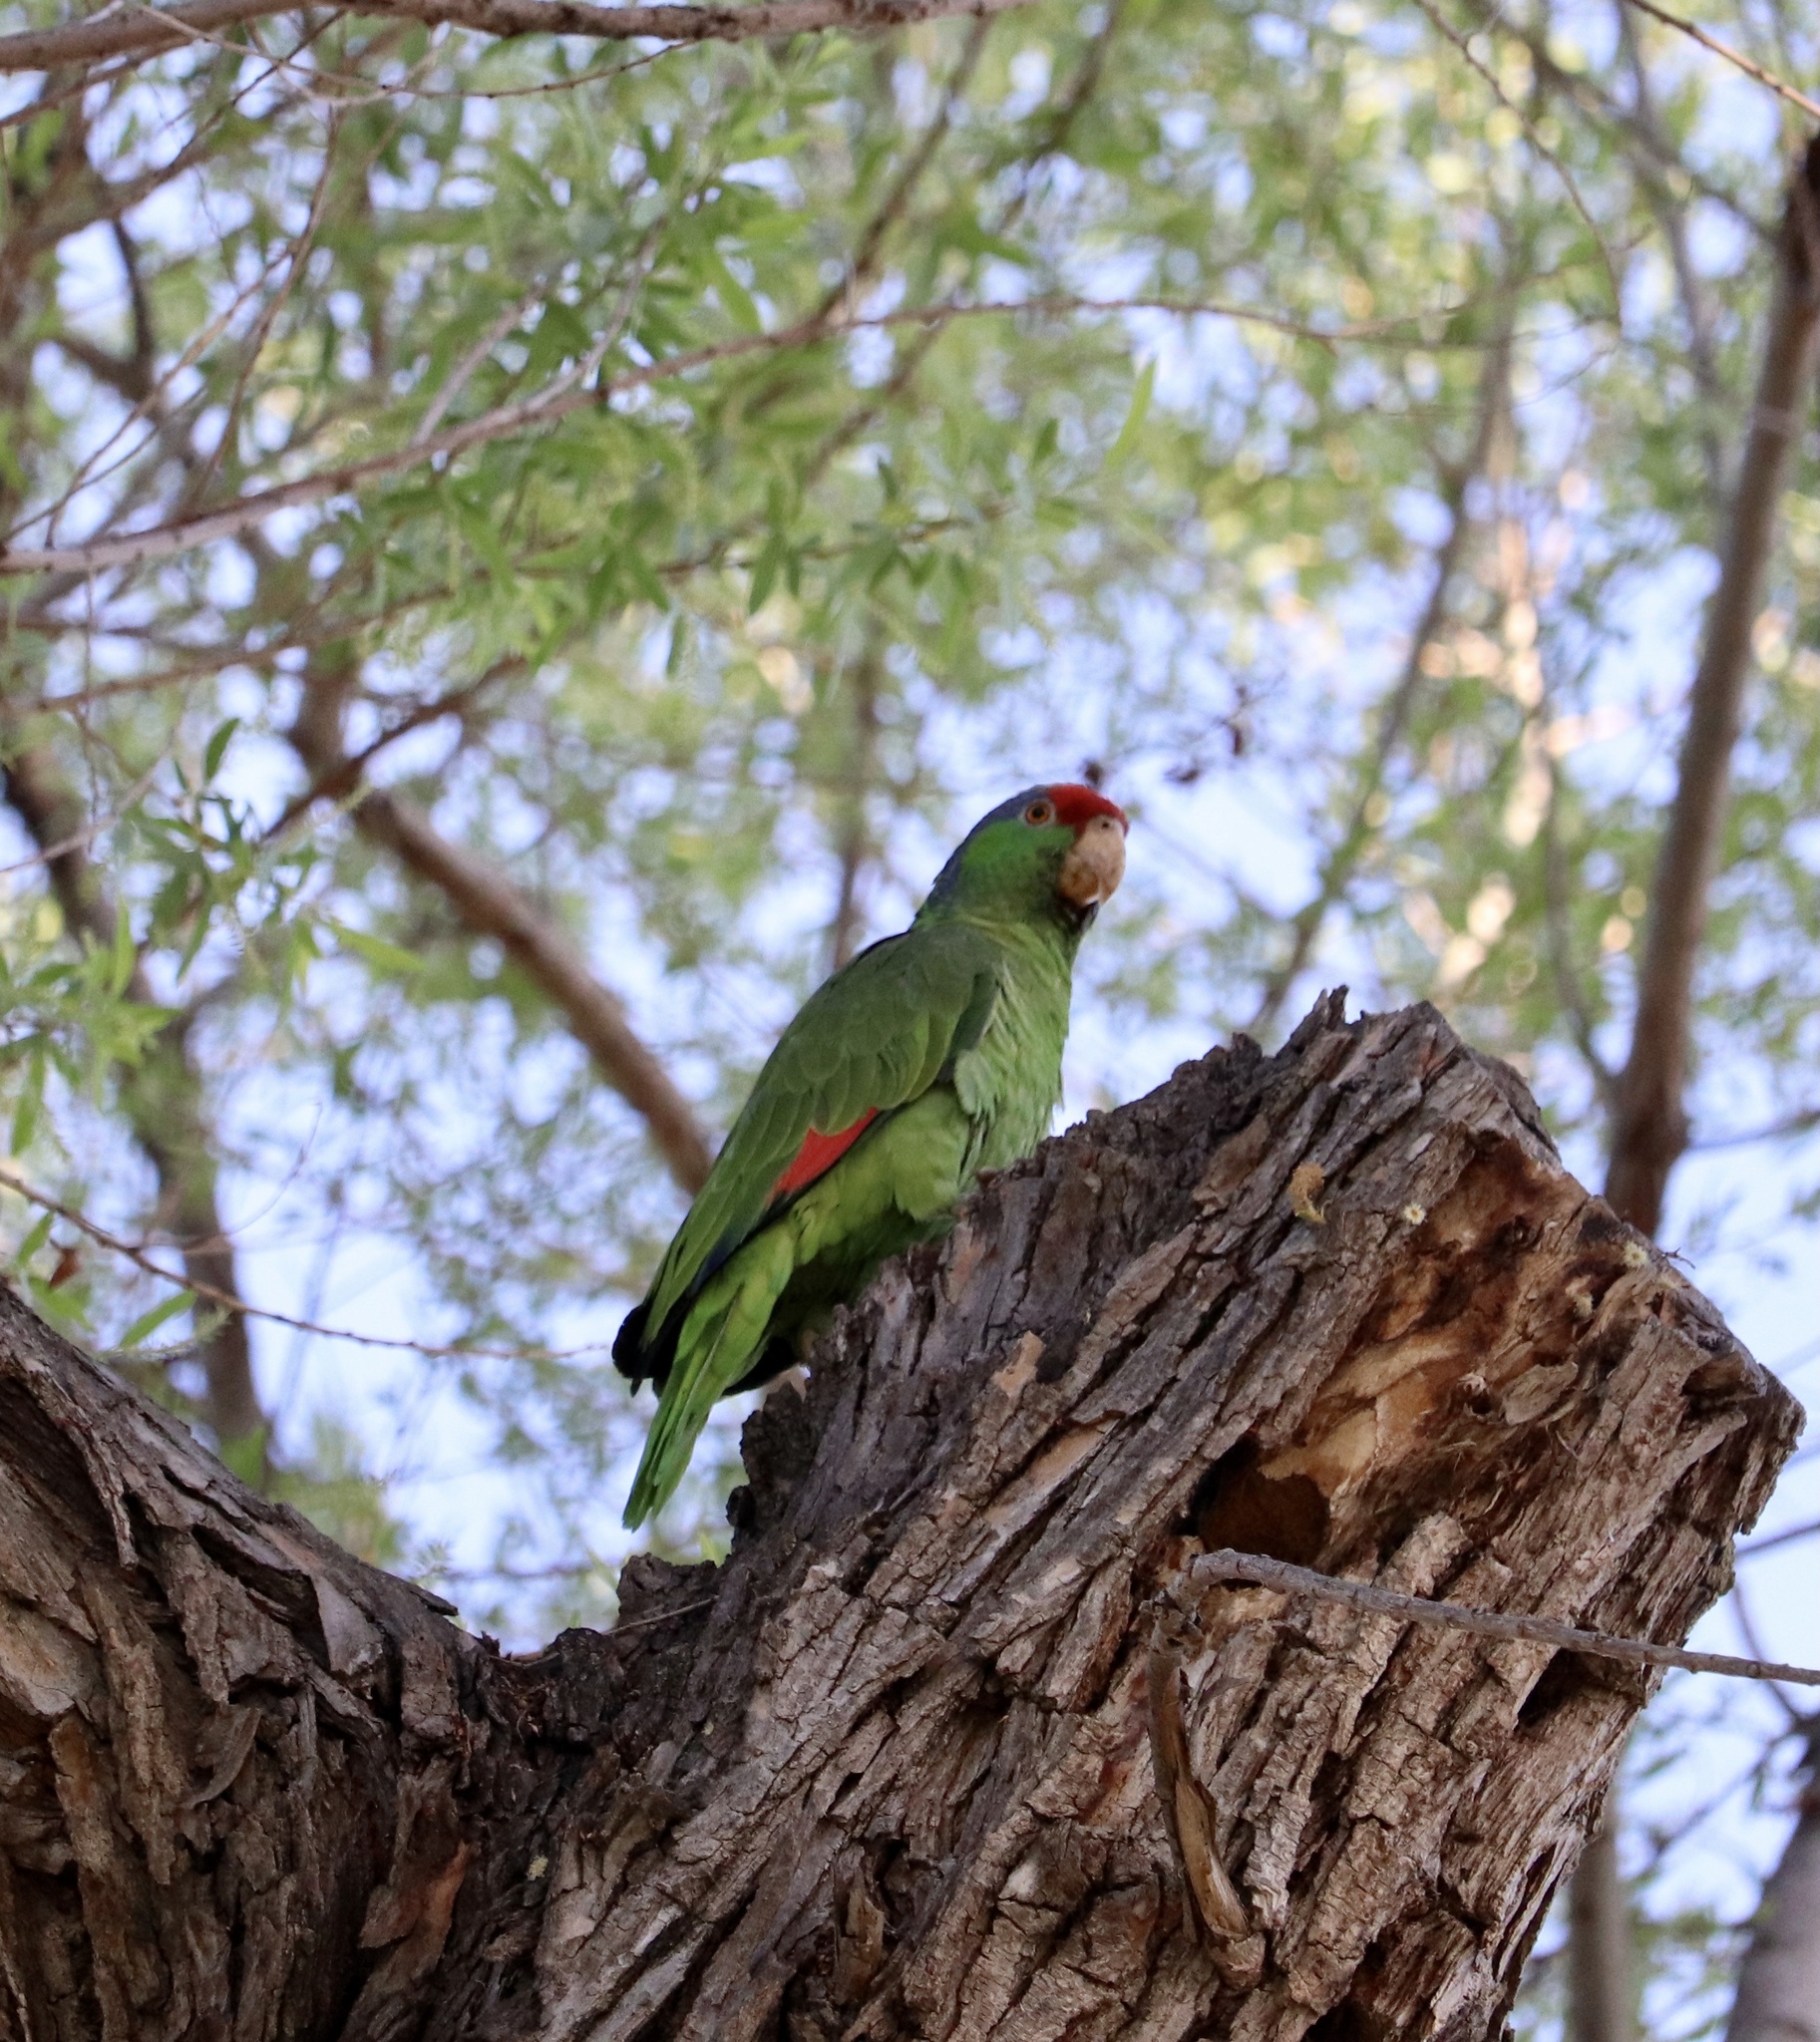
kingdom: Animalia
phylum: Chordata
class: Aves
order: Psittaciformes
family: Psittacidae
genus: Amazona
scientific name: Amazona viridigenalis
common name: Red-crowned amazon
